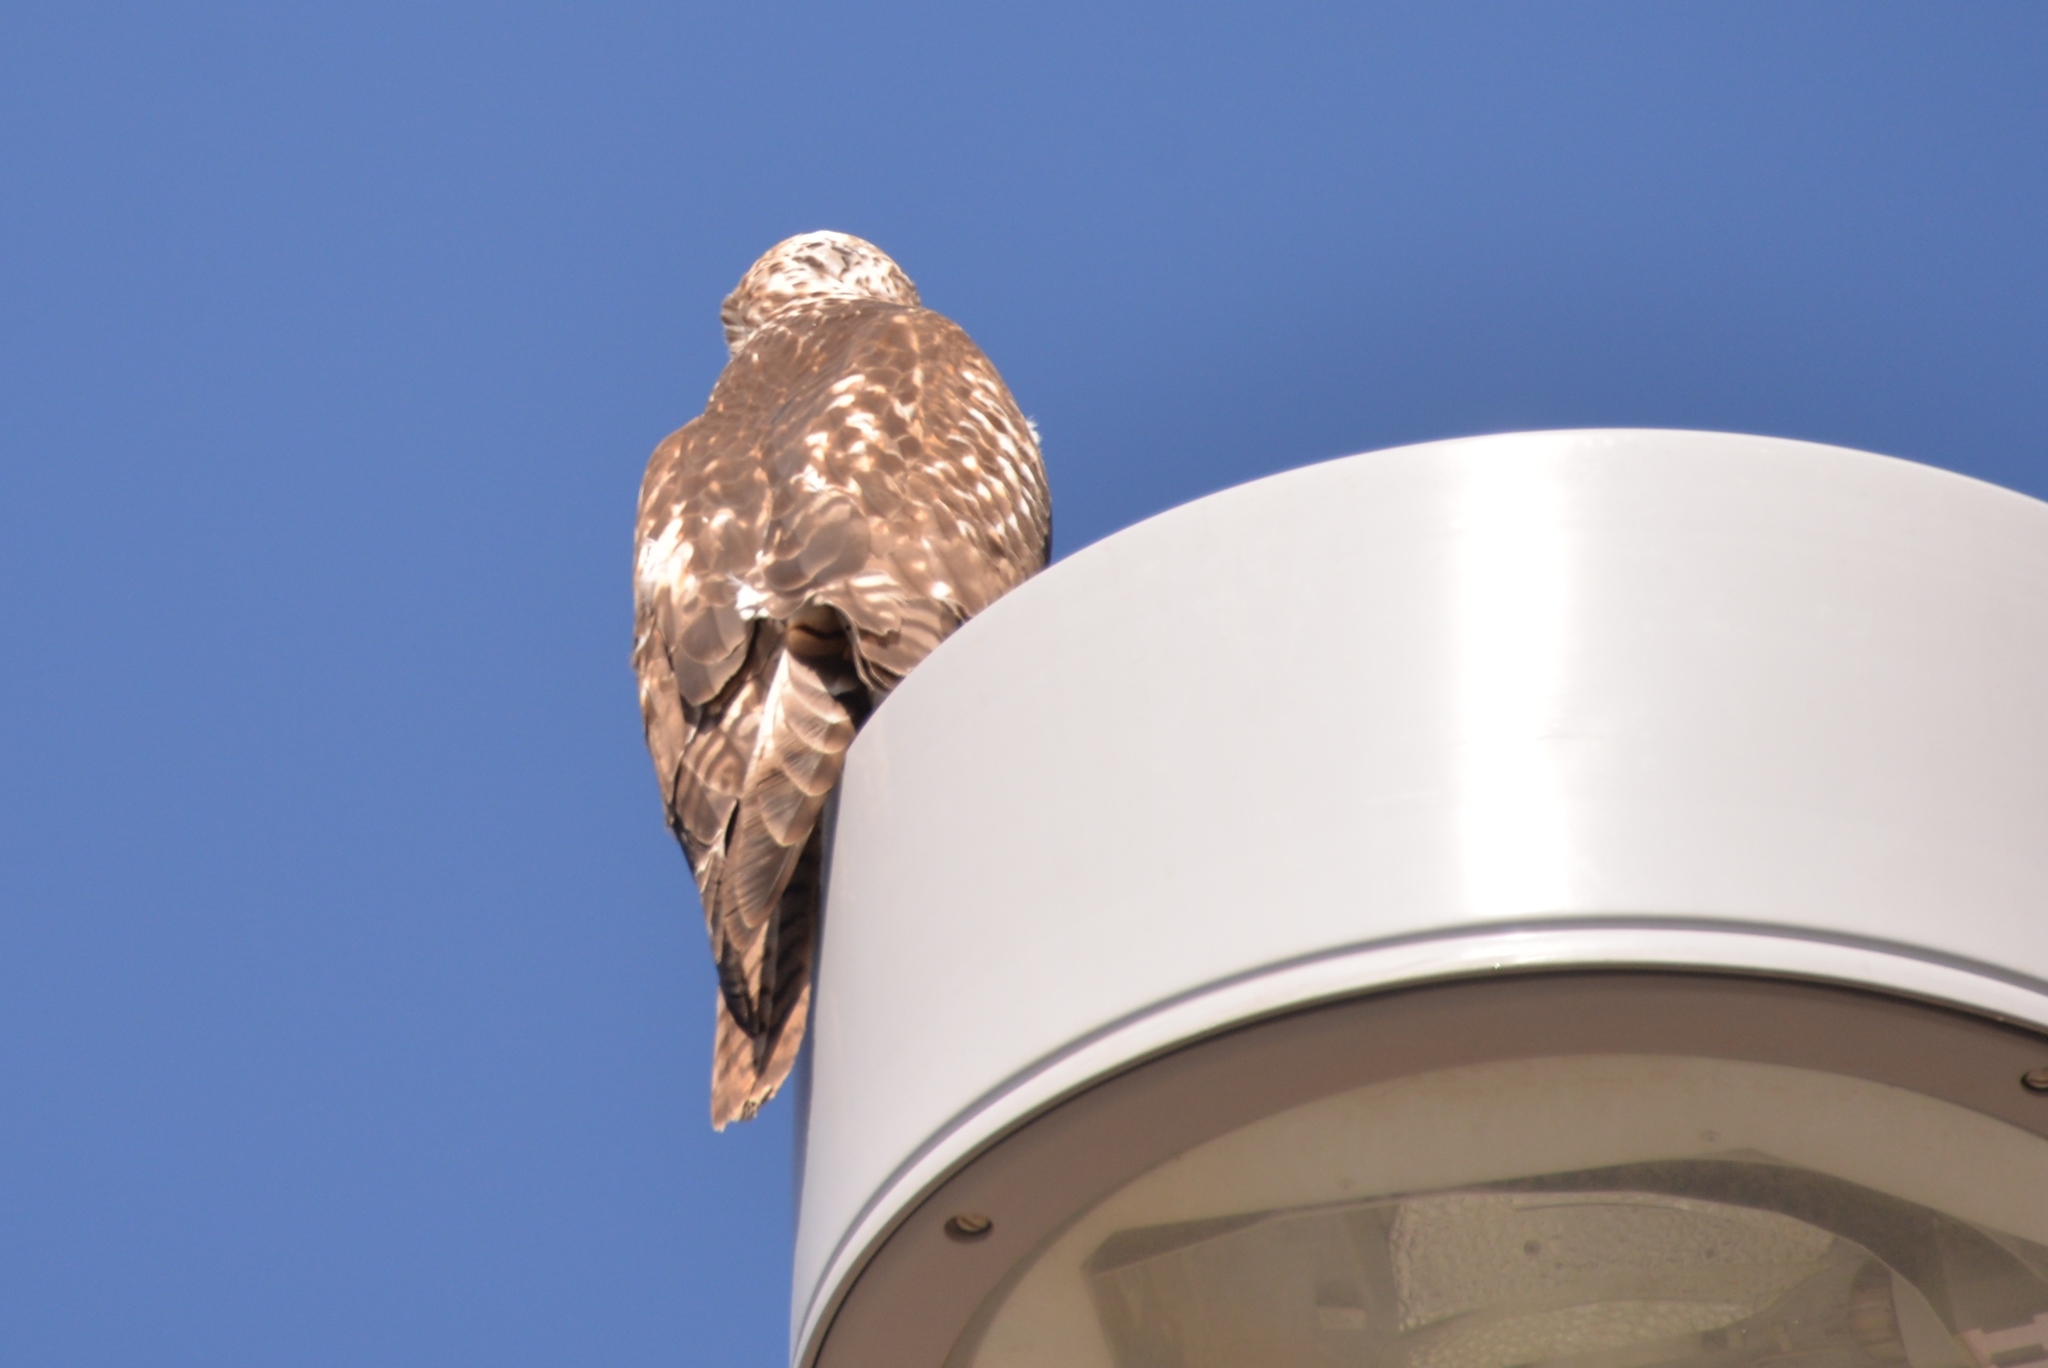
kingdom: Animalia
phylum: Chordata
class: Aves
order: Accipitriformes
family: Accipitridae
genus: Buteo
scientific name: Buteo jamaicensis
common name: Red-tailed hawk
